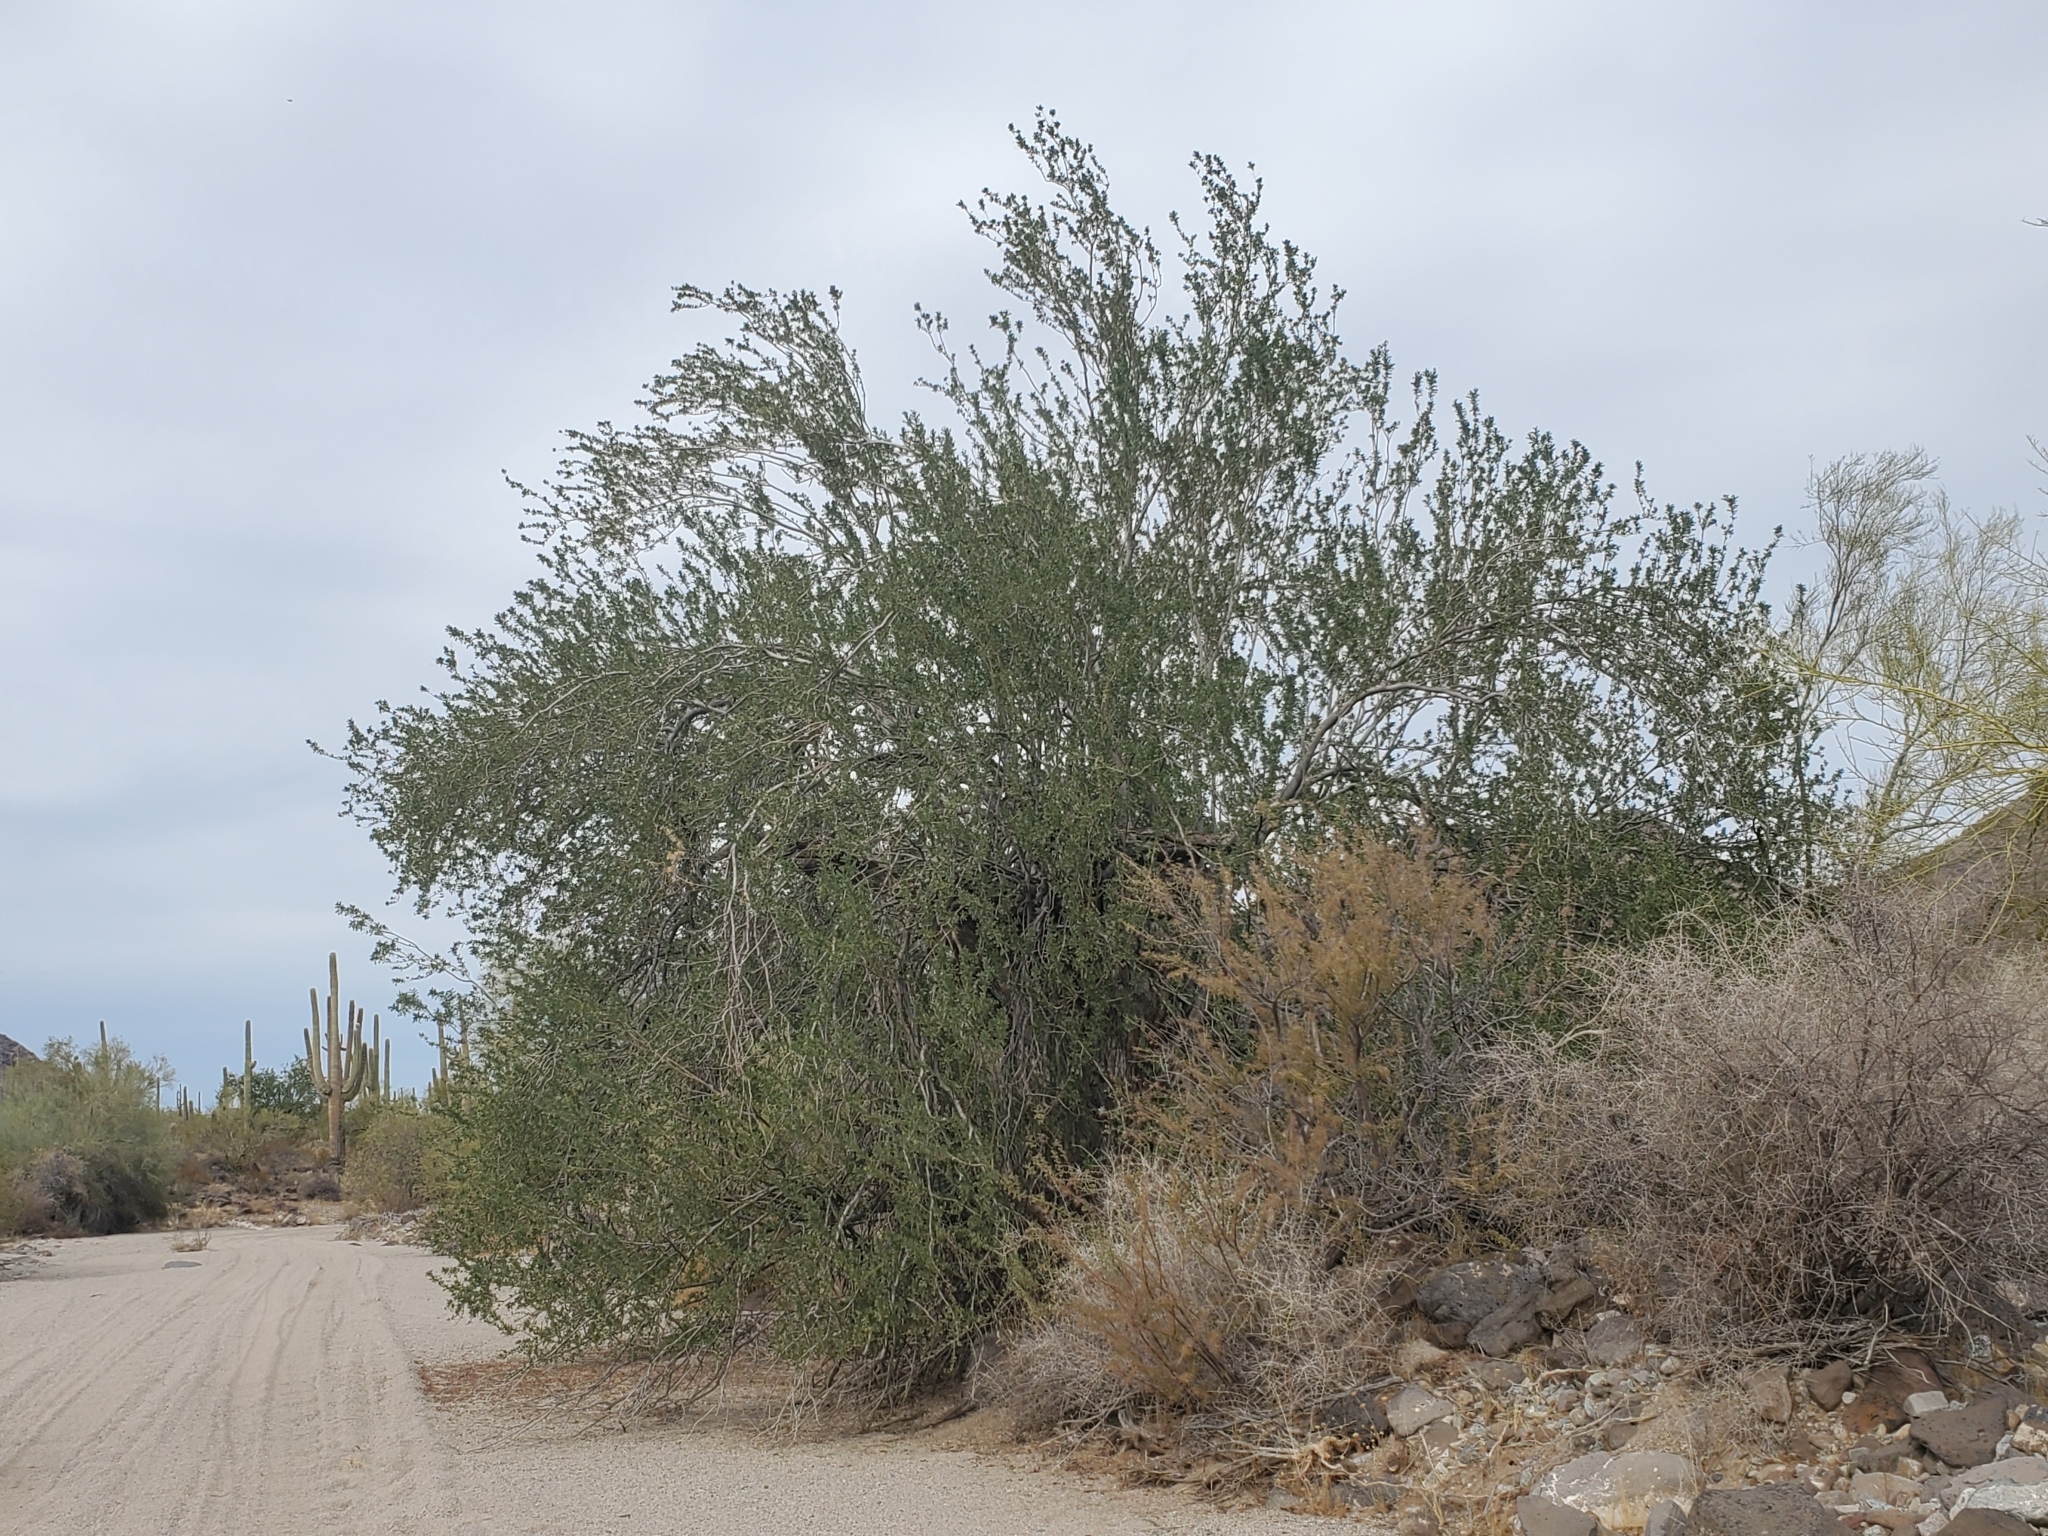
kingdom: Plantae
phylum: Tracheophyta
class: Magnoliopsida
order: Fabales
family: Fabaceae
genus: Olneya
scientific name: Olneya tesota
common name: Desert ironwood
